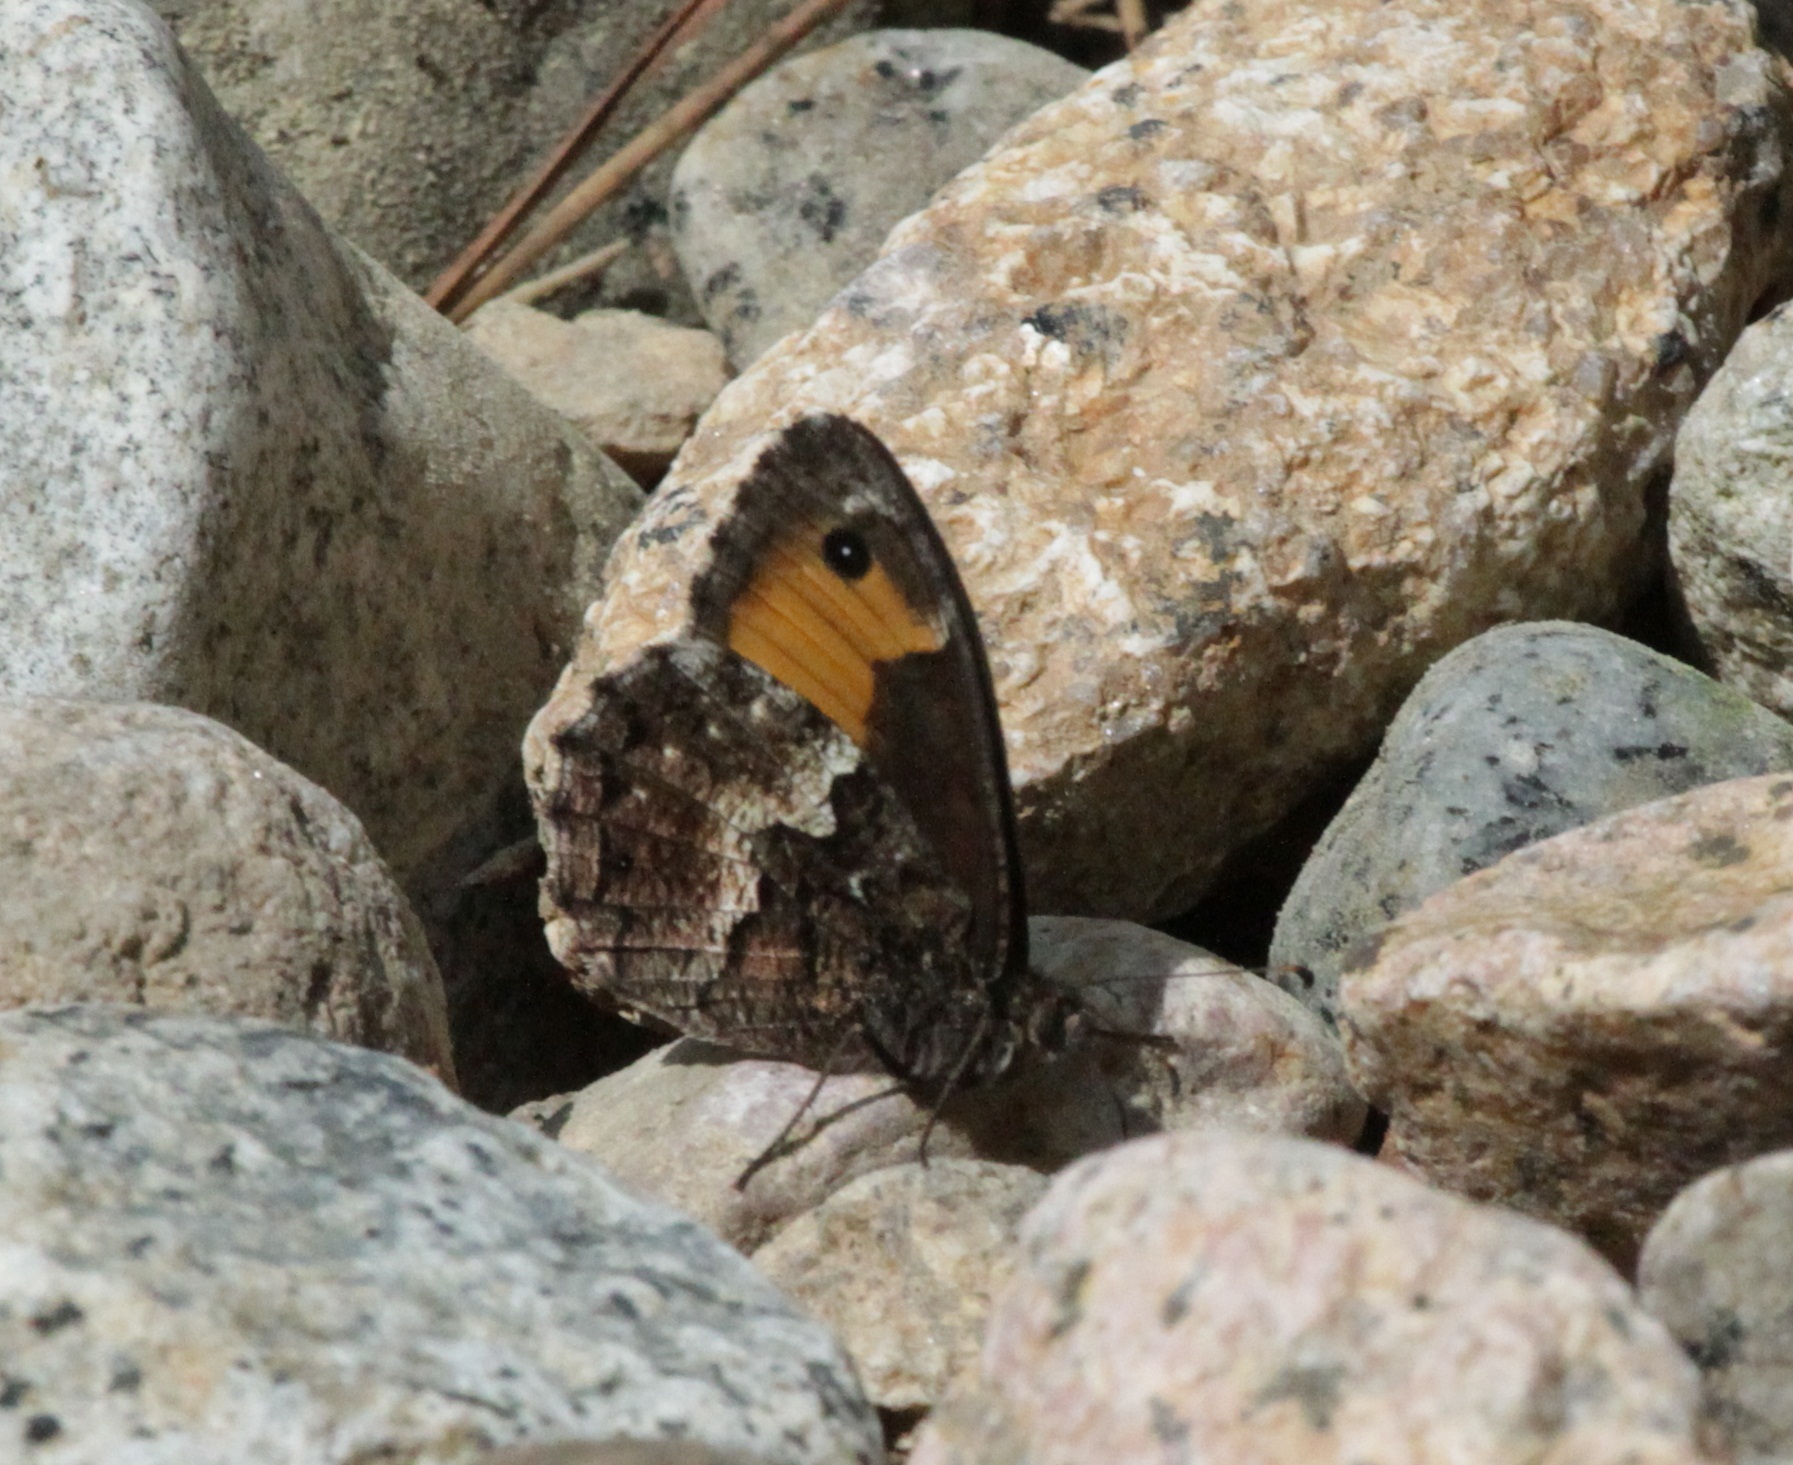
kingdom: Animalia
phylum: Arthropoda
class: Insecta
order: Lepidoptera
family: Nymphalidae
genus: Hipparchia
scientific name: Hipparchia neomiris
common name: Corsican grayling
